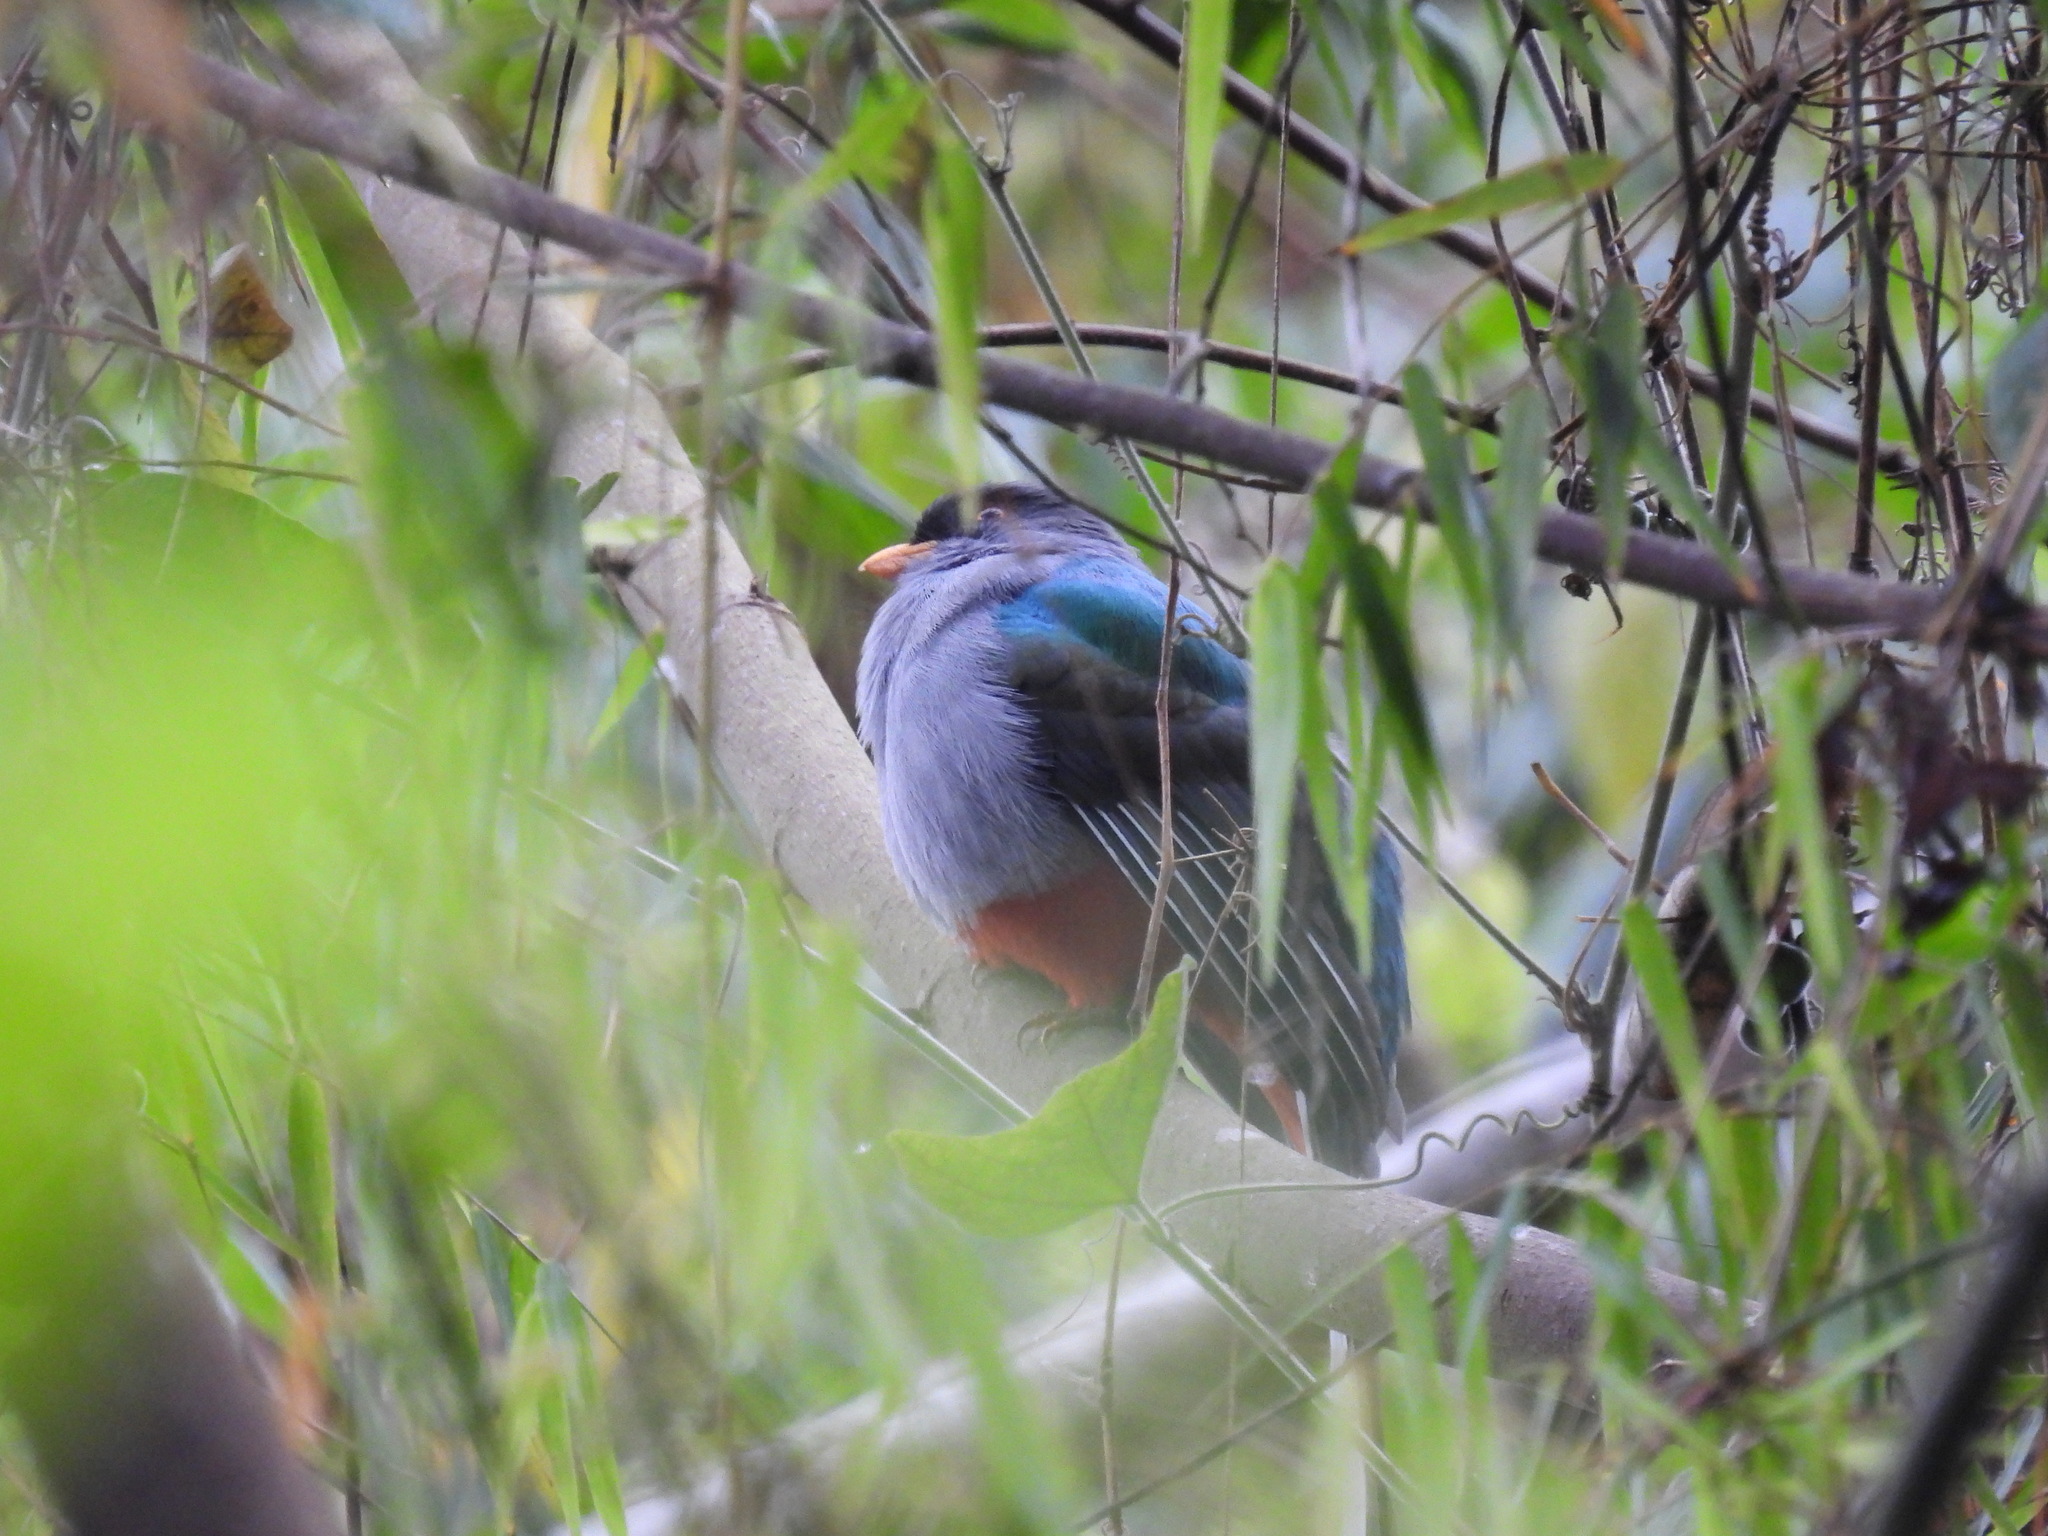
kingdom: Animalia
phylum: Chordata
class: Aves
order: Trogoniformes
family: Trogonidae
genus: Priotelus
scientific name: Priotelus roseigaster
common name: Hispaniolan trogon
